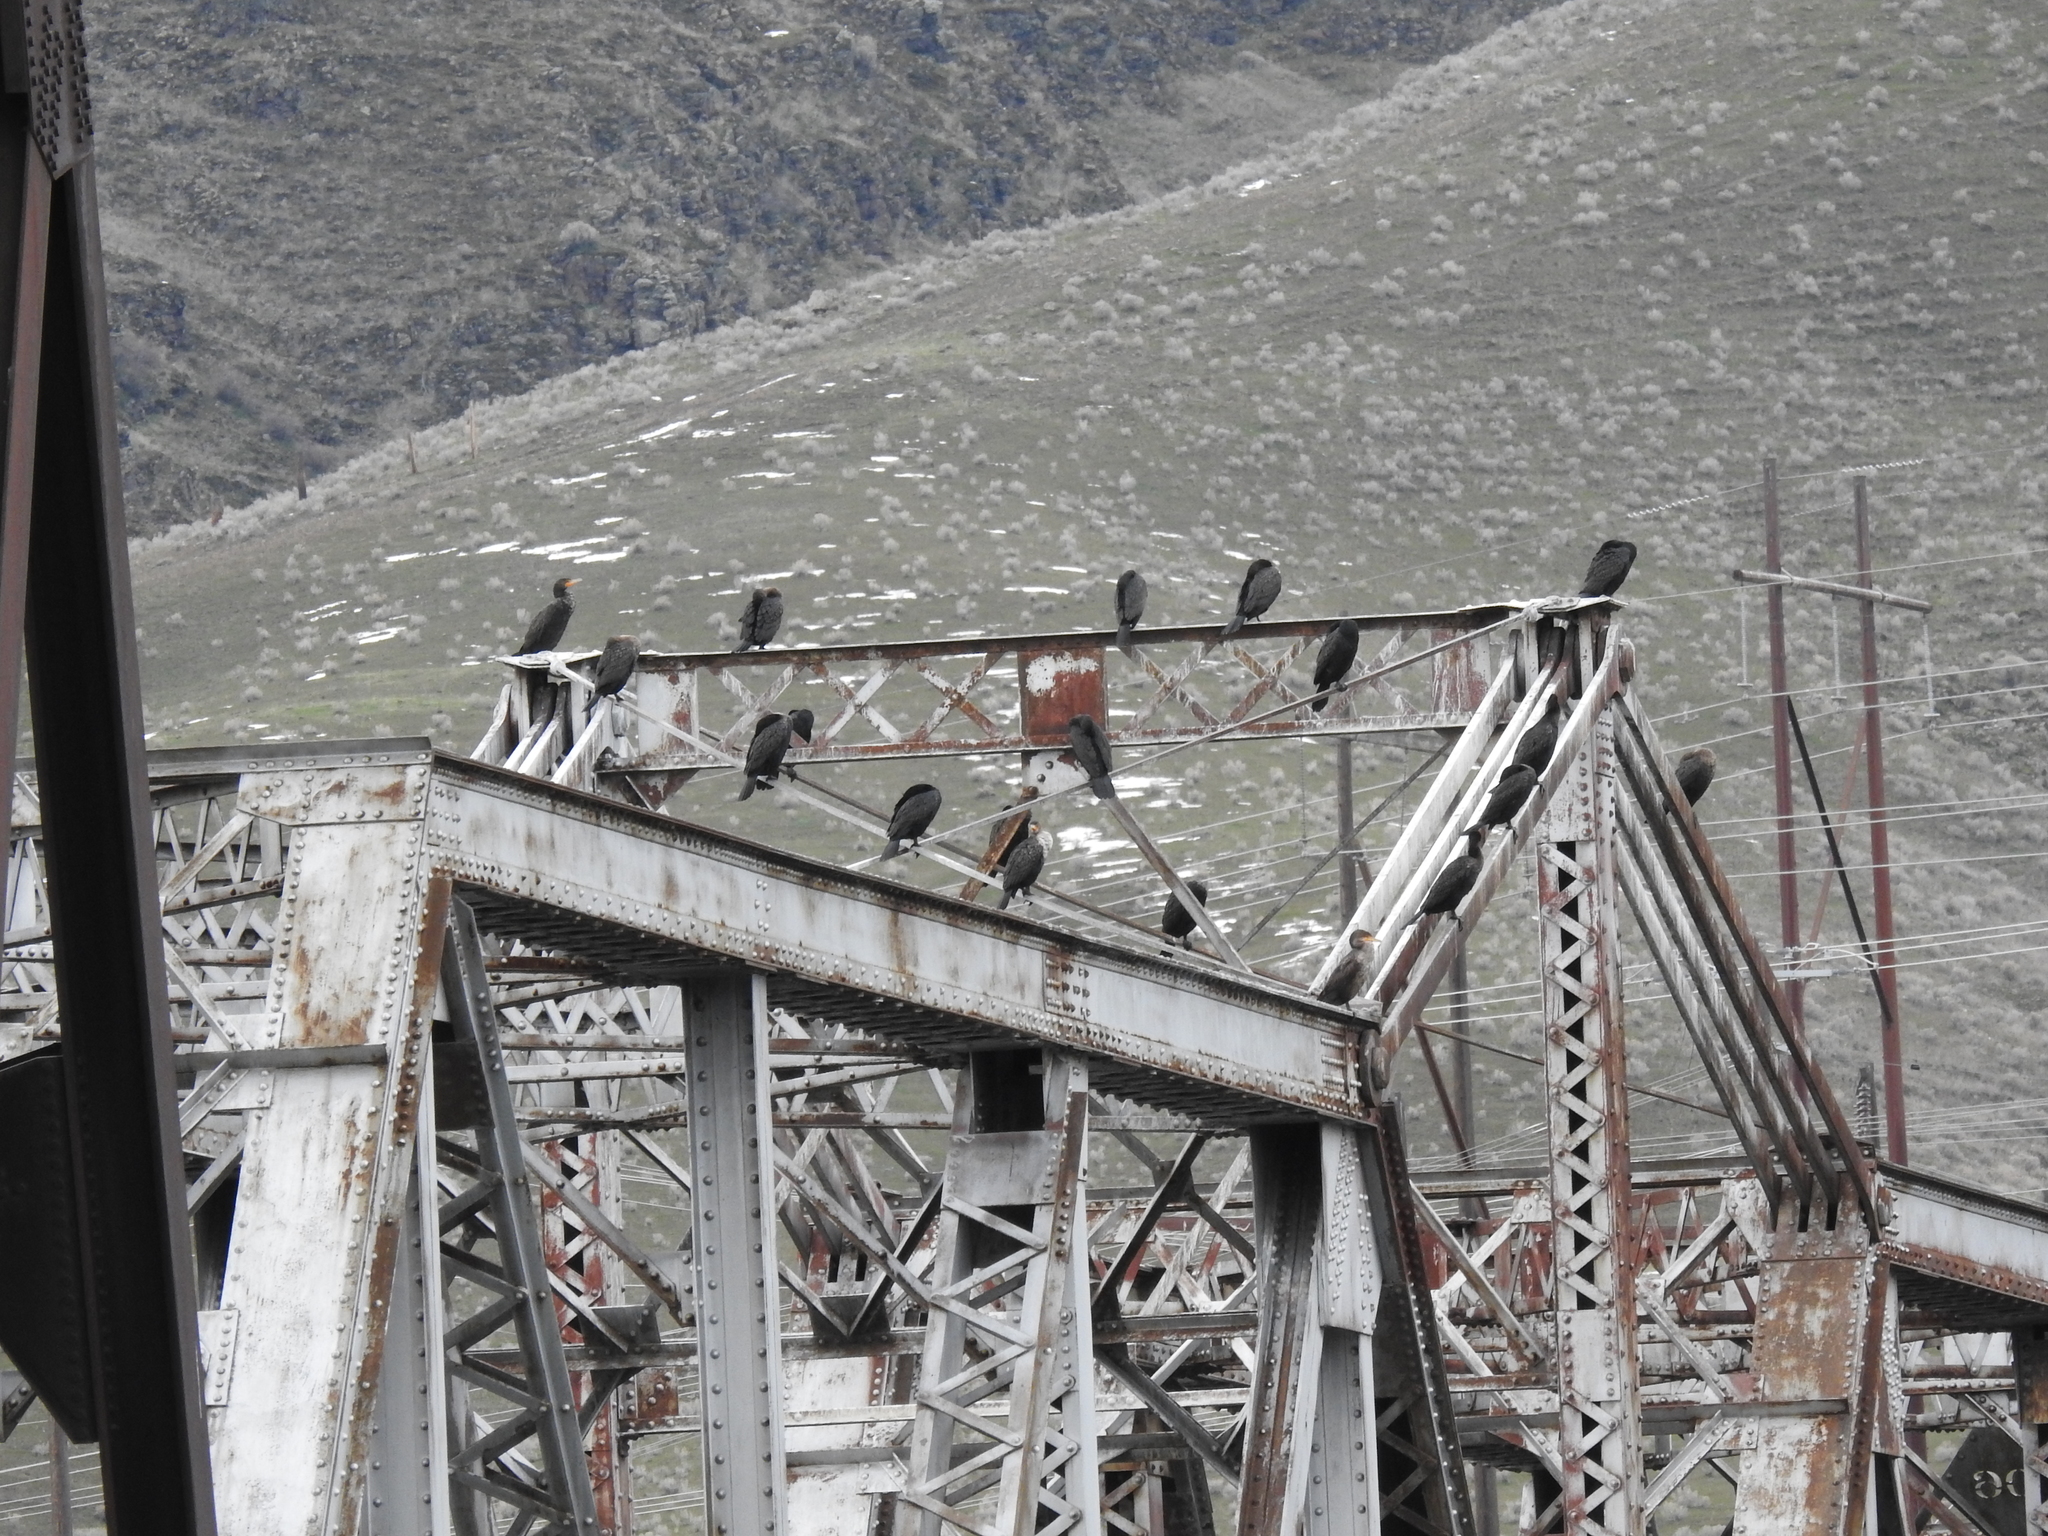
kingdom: Animalia
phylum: Chordata
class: Aves
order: Suliformes
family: Phalacrocoracidae
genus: Phalacrocorax
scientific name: Phalacrocorax auritus
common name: Double-crested cormorant
